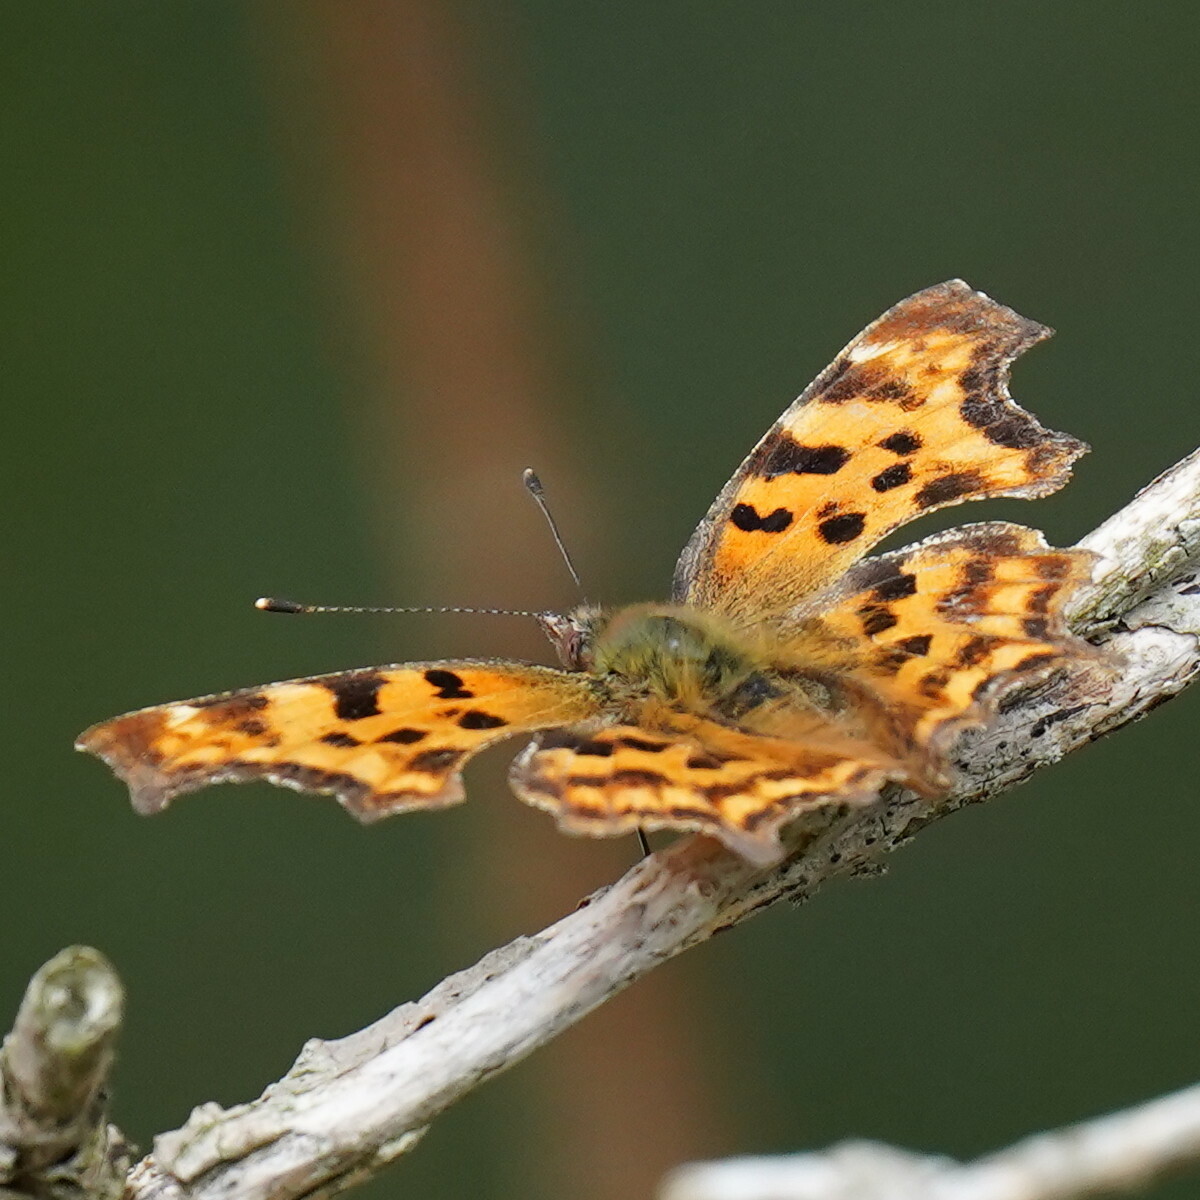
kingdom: Animalia
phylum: Arthropoda
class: Insecta
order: Lepidoptera
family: Nymphalidae
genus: Polygonia
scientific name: Polygonia c-album
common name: Comma
